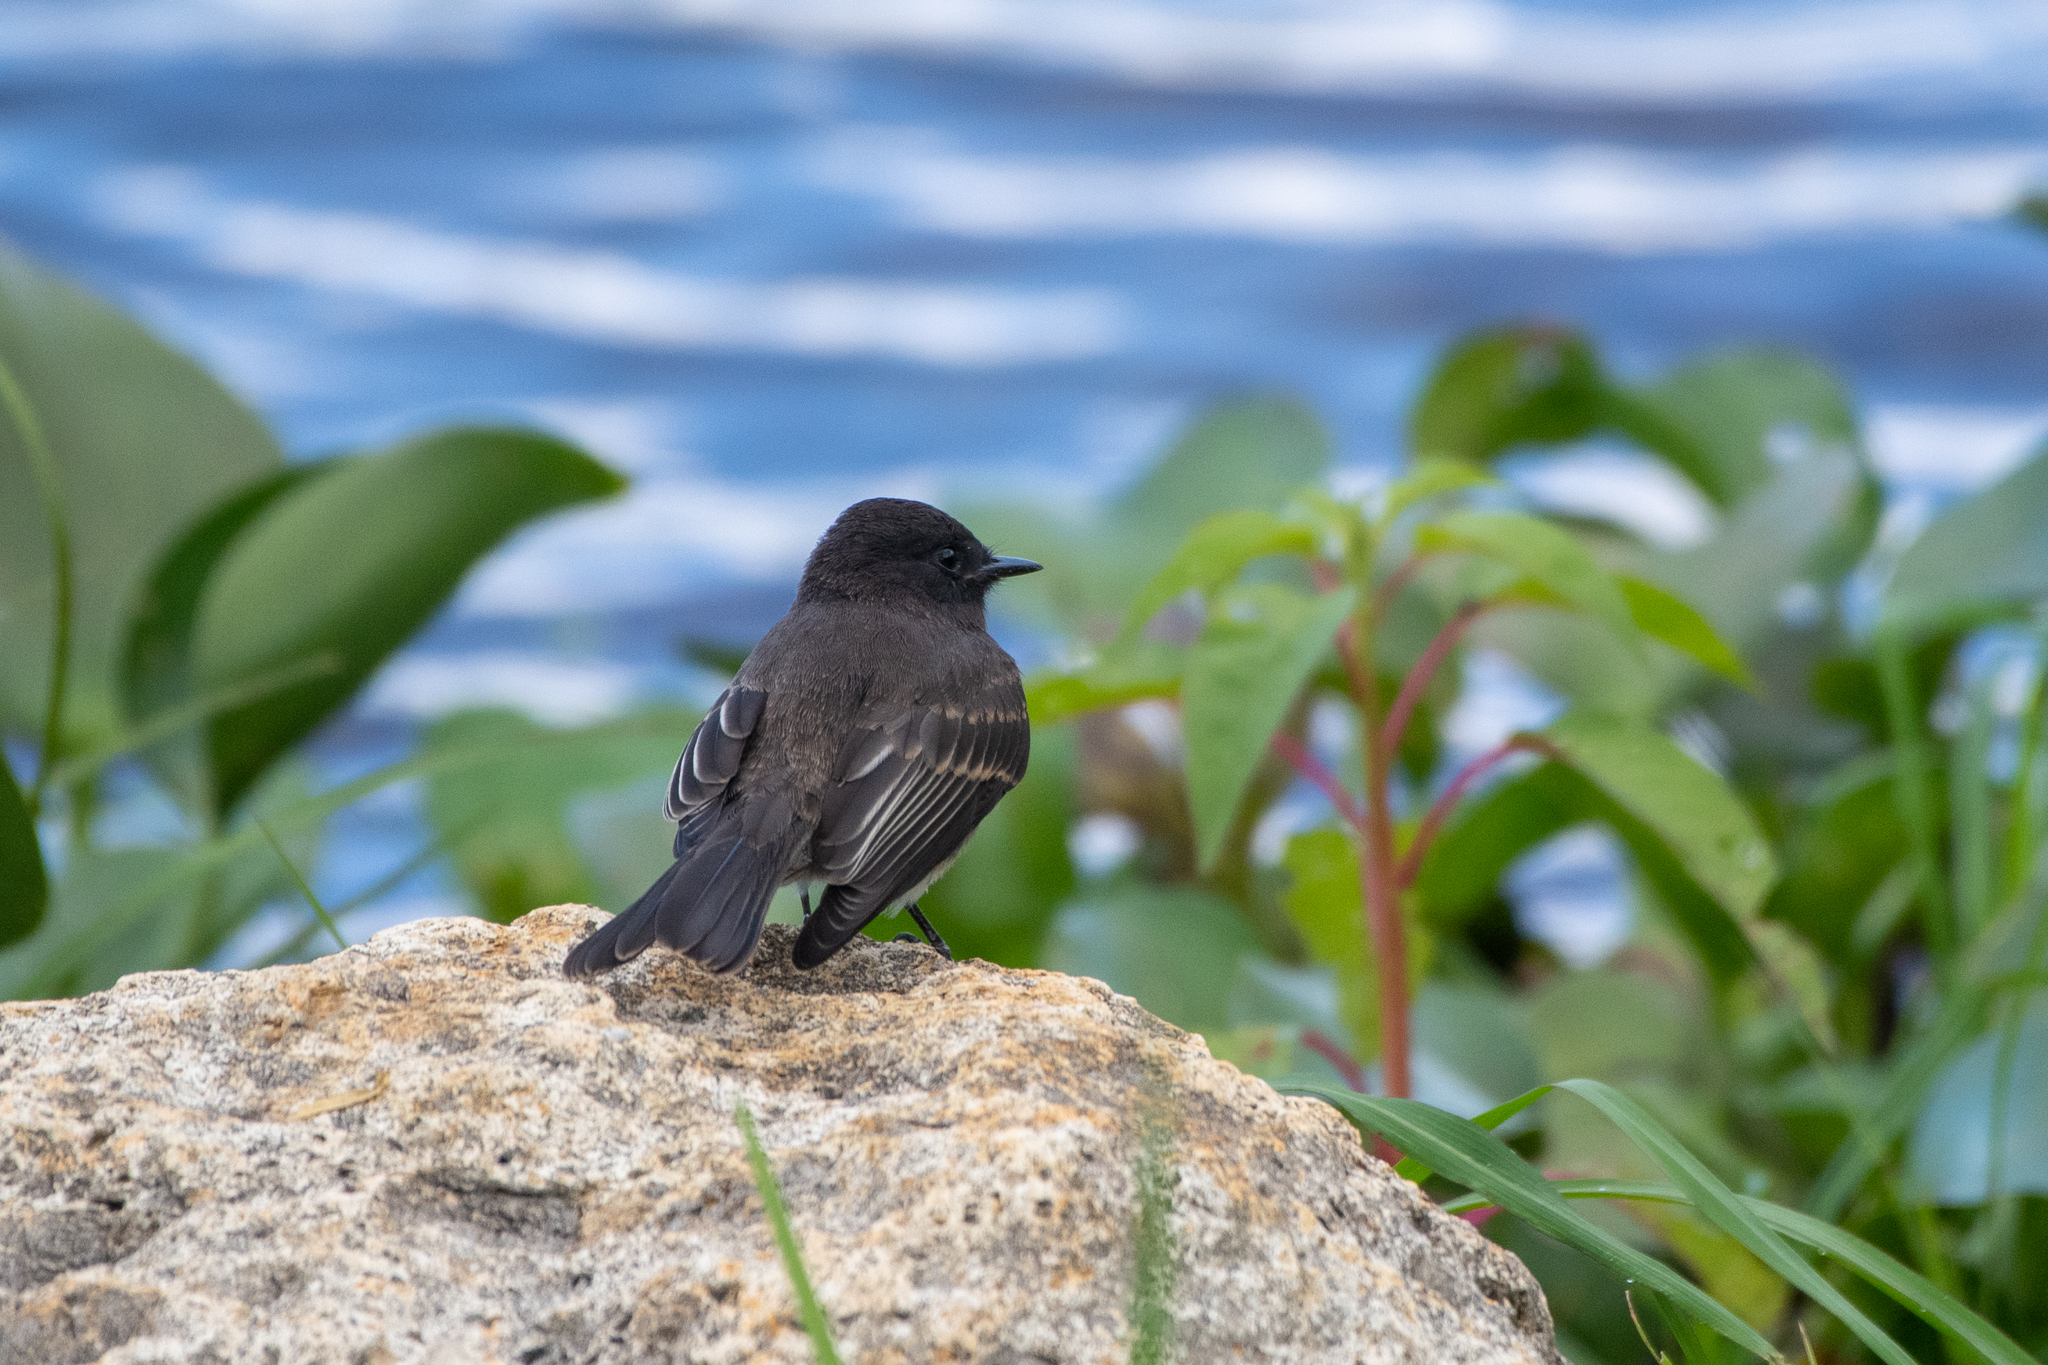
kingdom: Animalia
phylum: Chordata
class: Aves
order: Passeriformes
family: Tyrannidae
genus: Sayornis
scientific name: Sayornis nigricans
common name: Black phoebe
